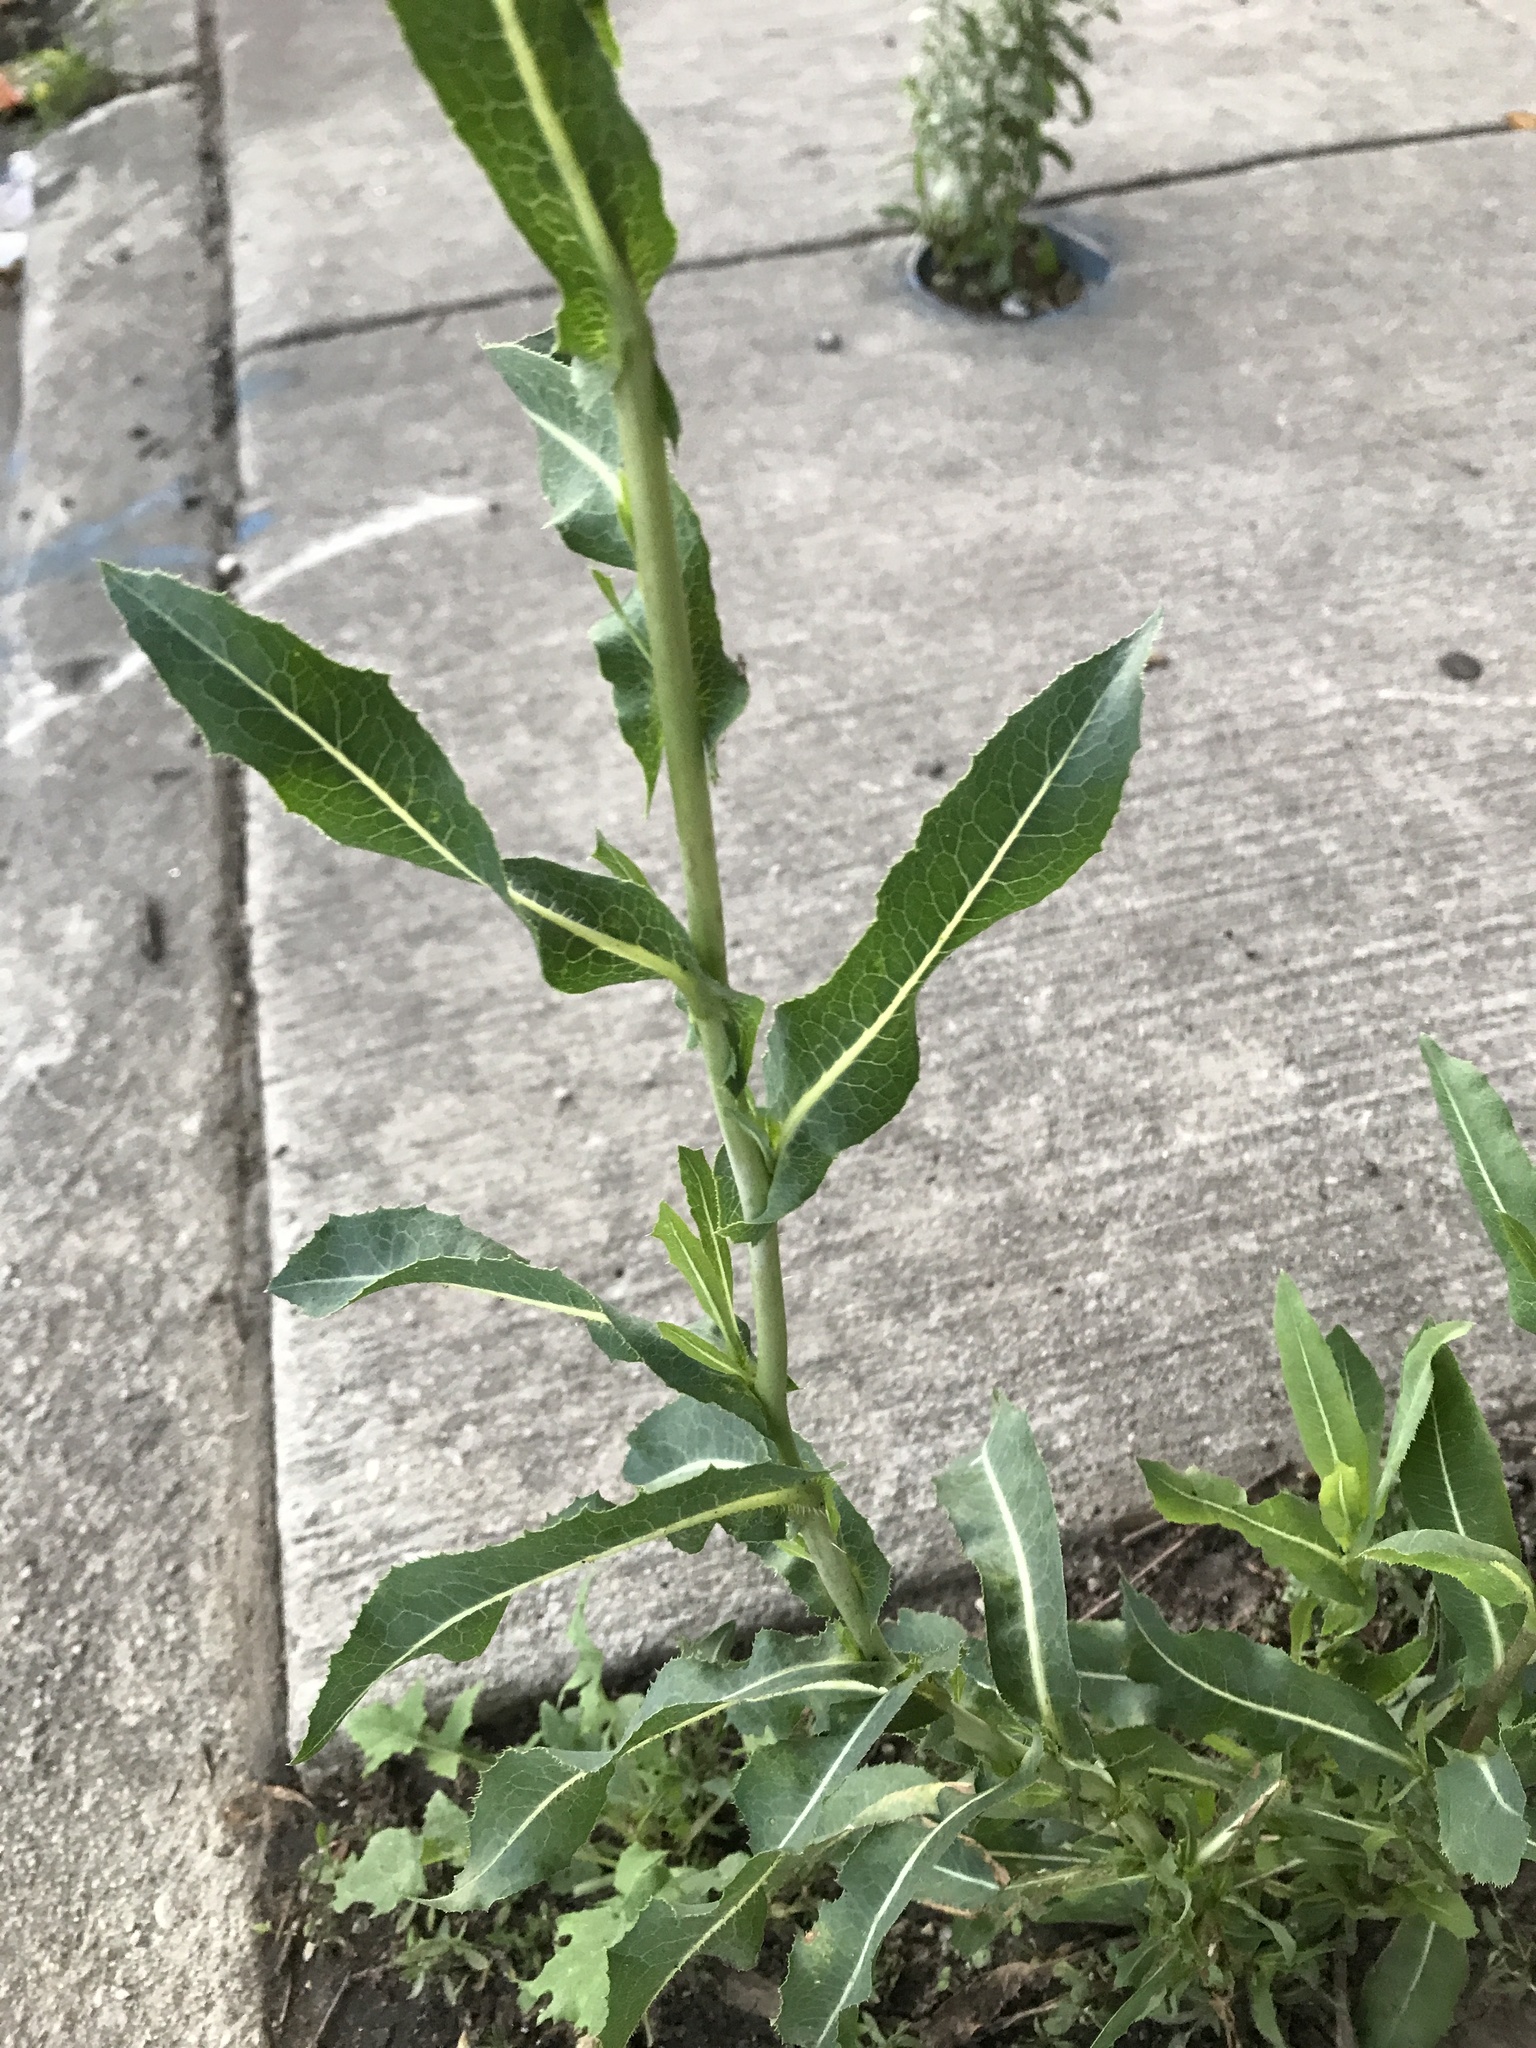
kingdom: Plantae
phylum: Tracheophyta
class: Magnoliopsida
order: Asterales
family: Asteraceae
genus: Lactuca
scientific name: Lactuca serriola
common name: Prickly lettuce
